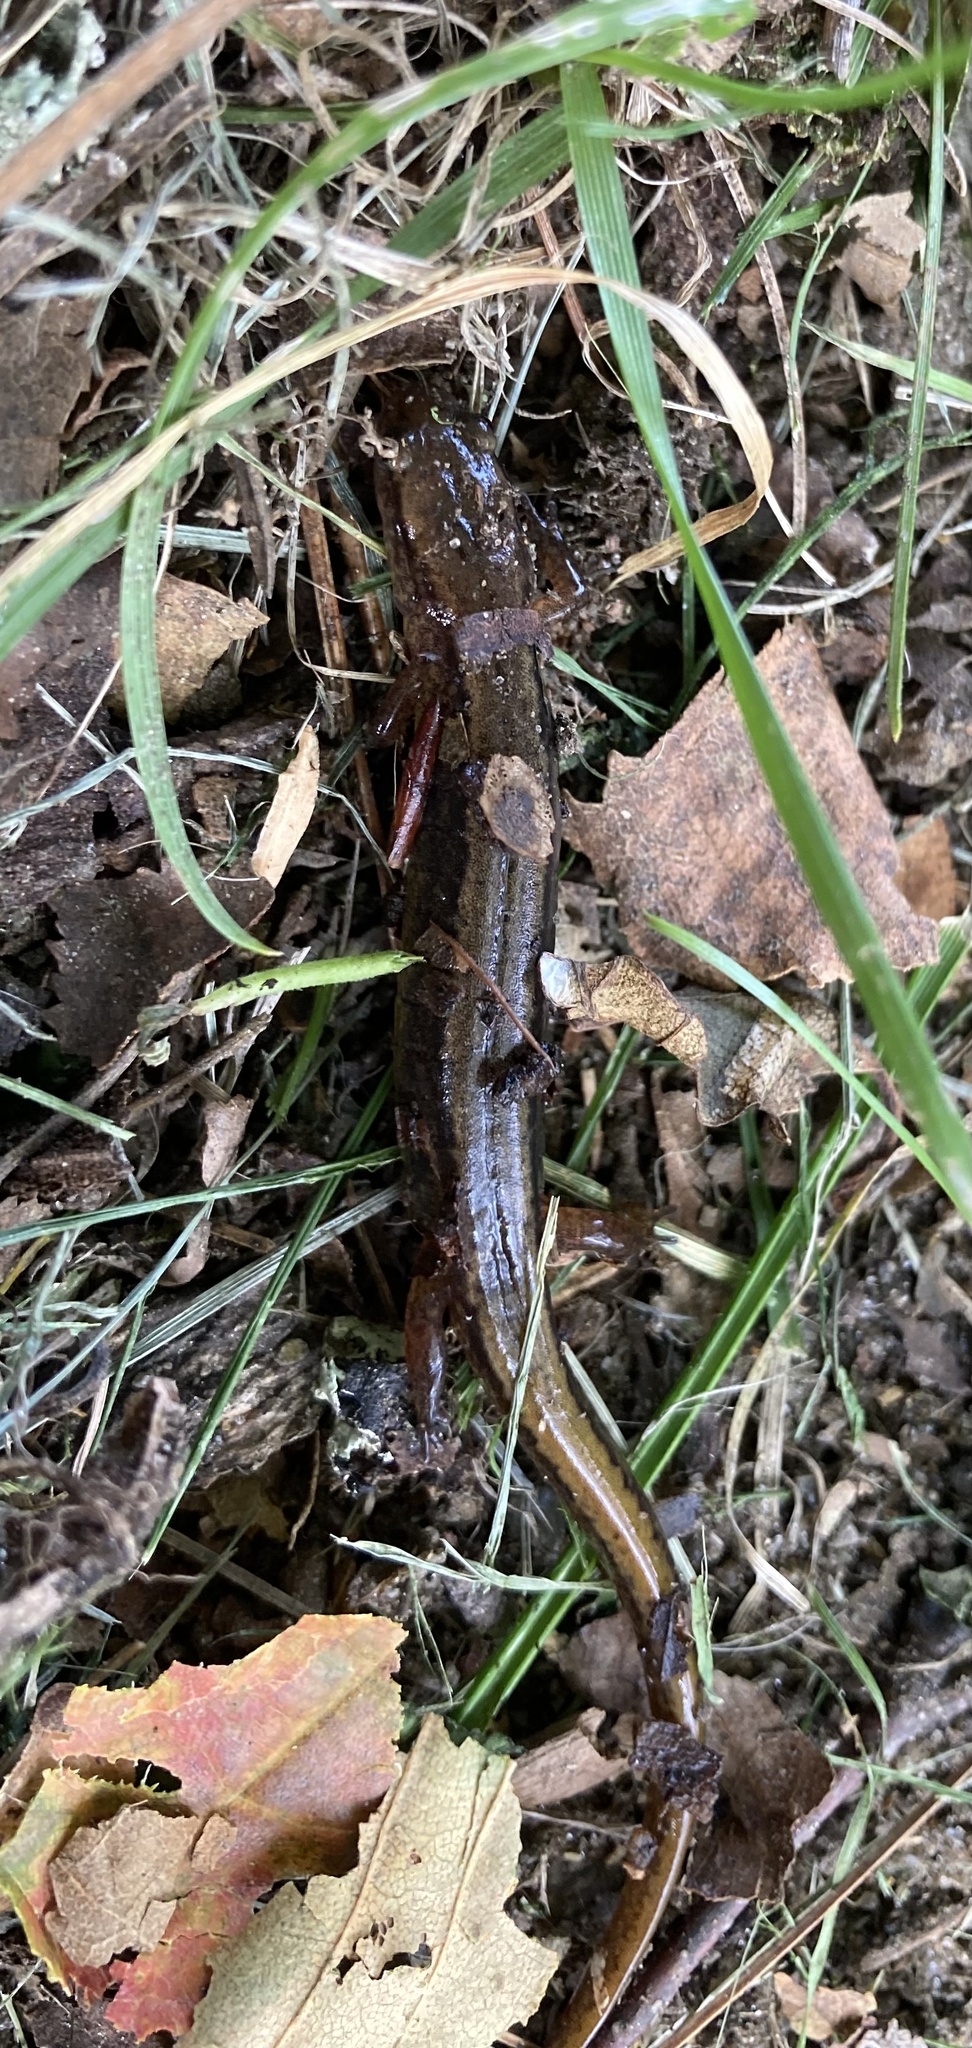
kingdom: Animalia
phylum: Chordata
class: Amphibia
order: Caudata
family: Plethodontidae
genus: Eurycea
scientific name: Eurycea bislineata
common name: Northern two-lined salamander
